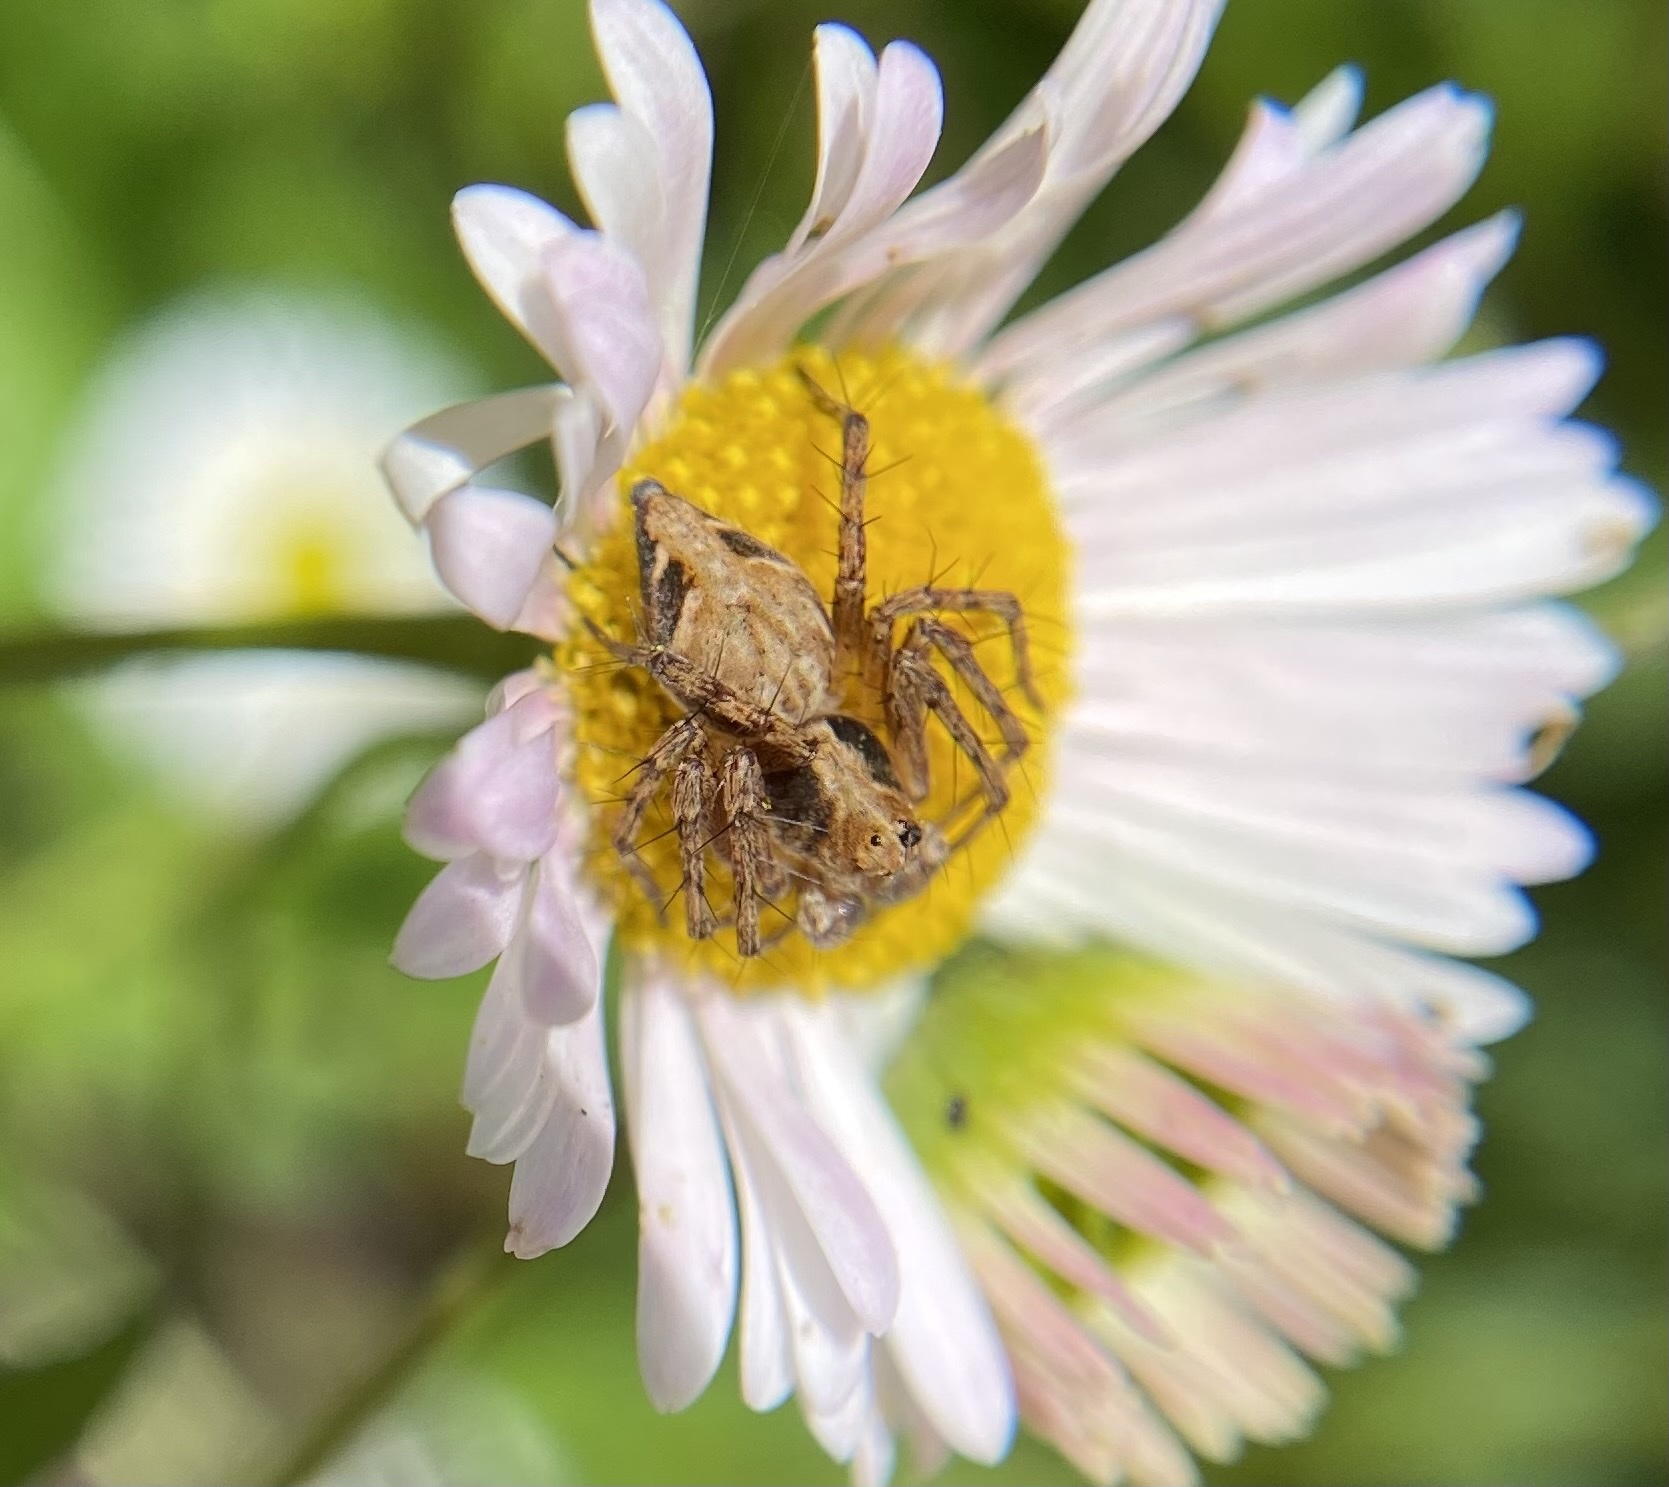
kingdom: Animalia
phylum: Arthropoda
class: Arachnida
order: Araneae
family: Oxyopidae
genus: Oxyopes
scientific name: Oxyopes scalaris
